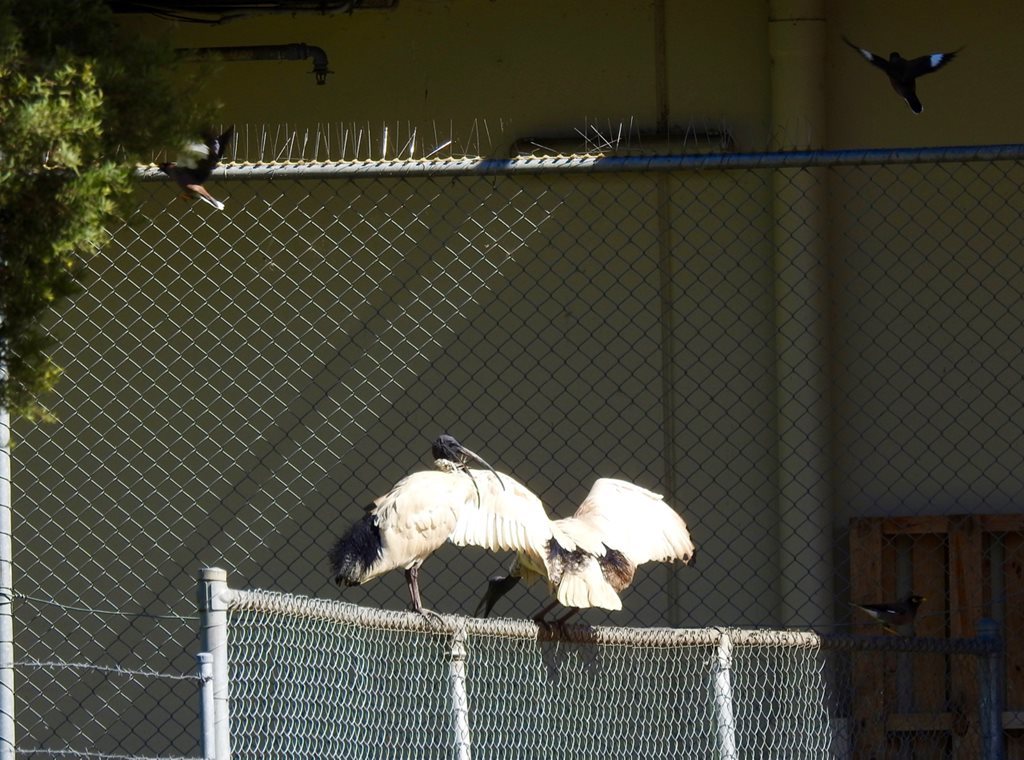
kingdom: Animalia
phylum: Chordata
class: Aves
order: Pelecaniformes
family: Threskiornithidae
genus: Threskiornis
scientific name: Threskiornis molucca
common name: Australian white ibis
